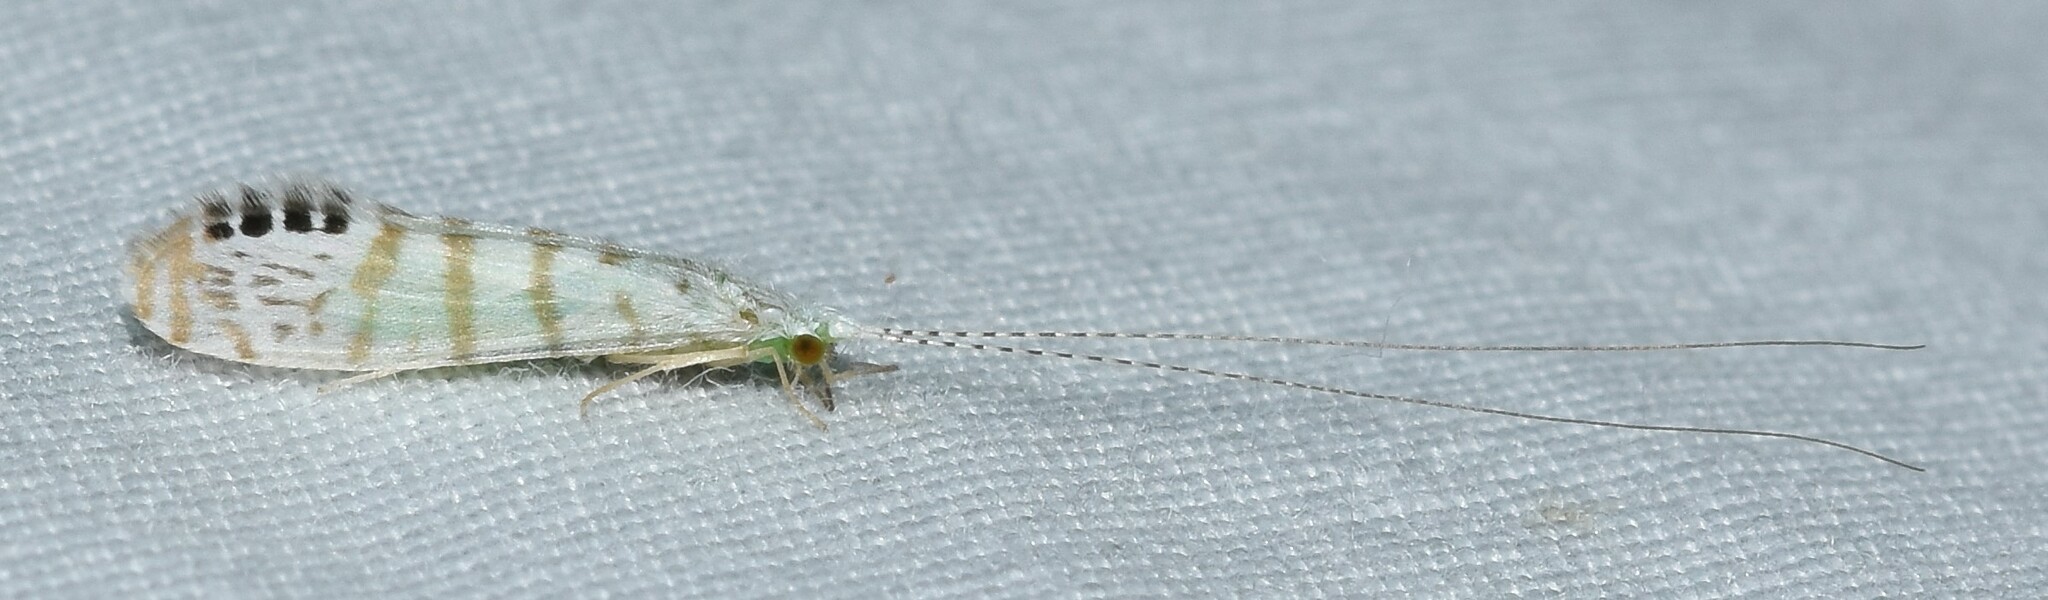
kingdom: Animalia
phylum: Arthropoda
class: Insecta
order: Trichoptera
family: Leptoceridae
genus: Nectopsyche
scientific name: Nectopsyche exquisita
